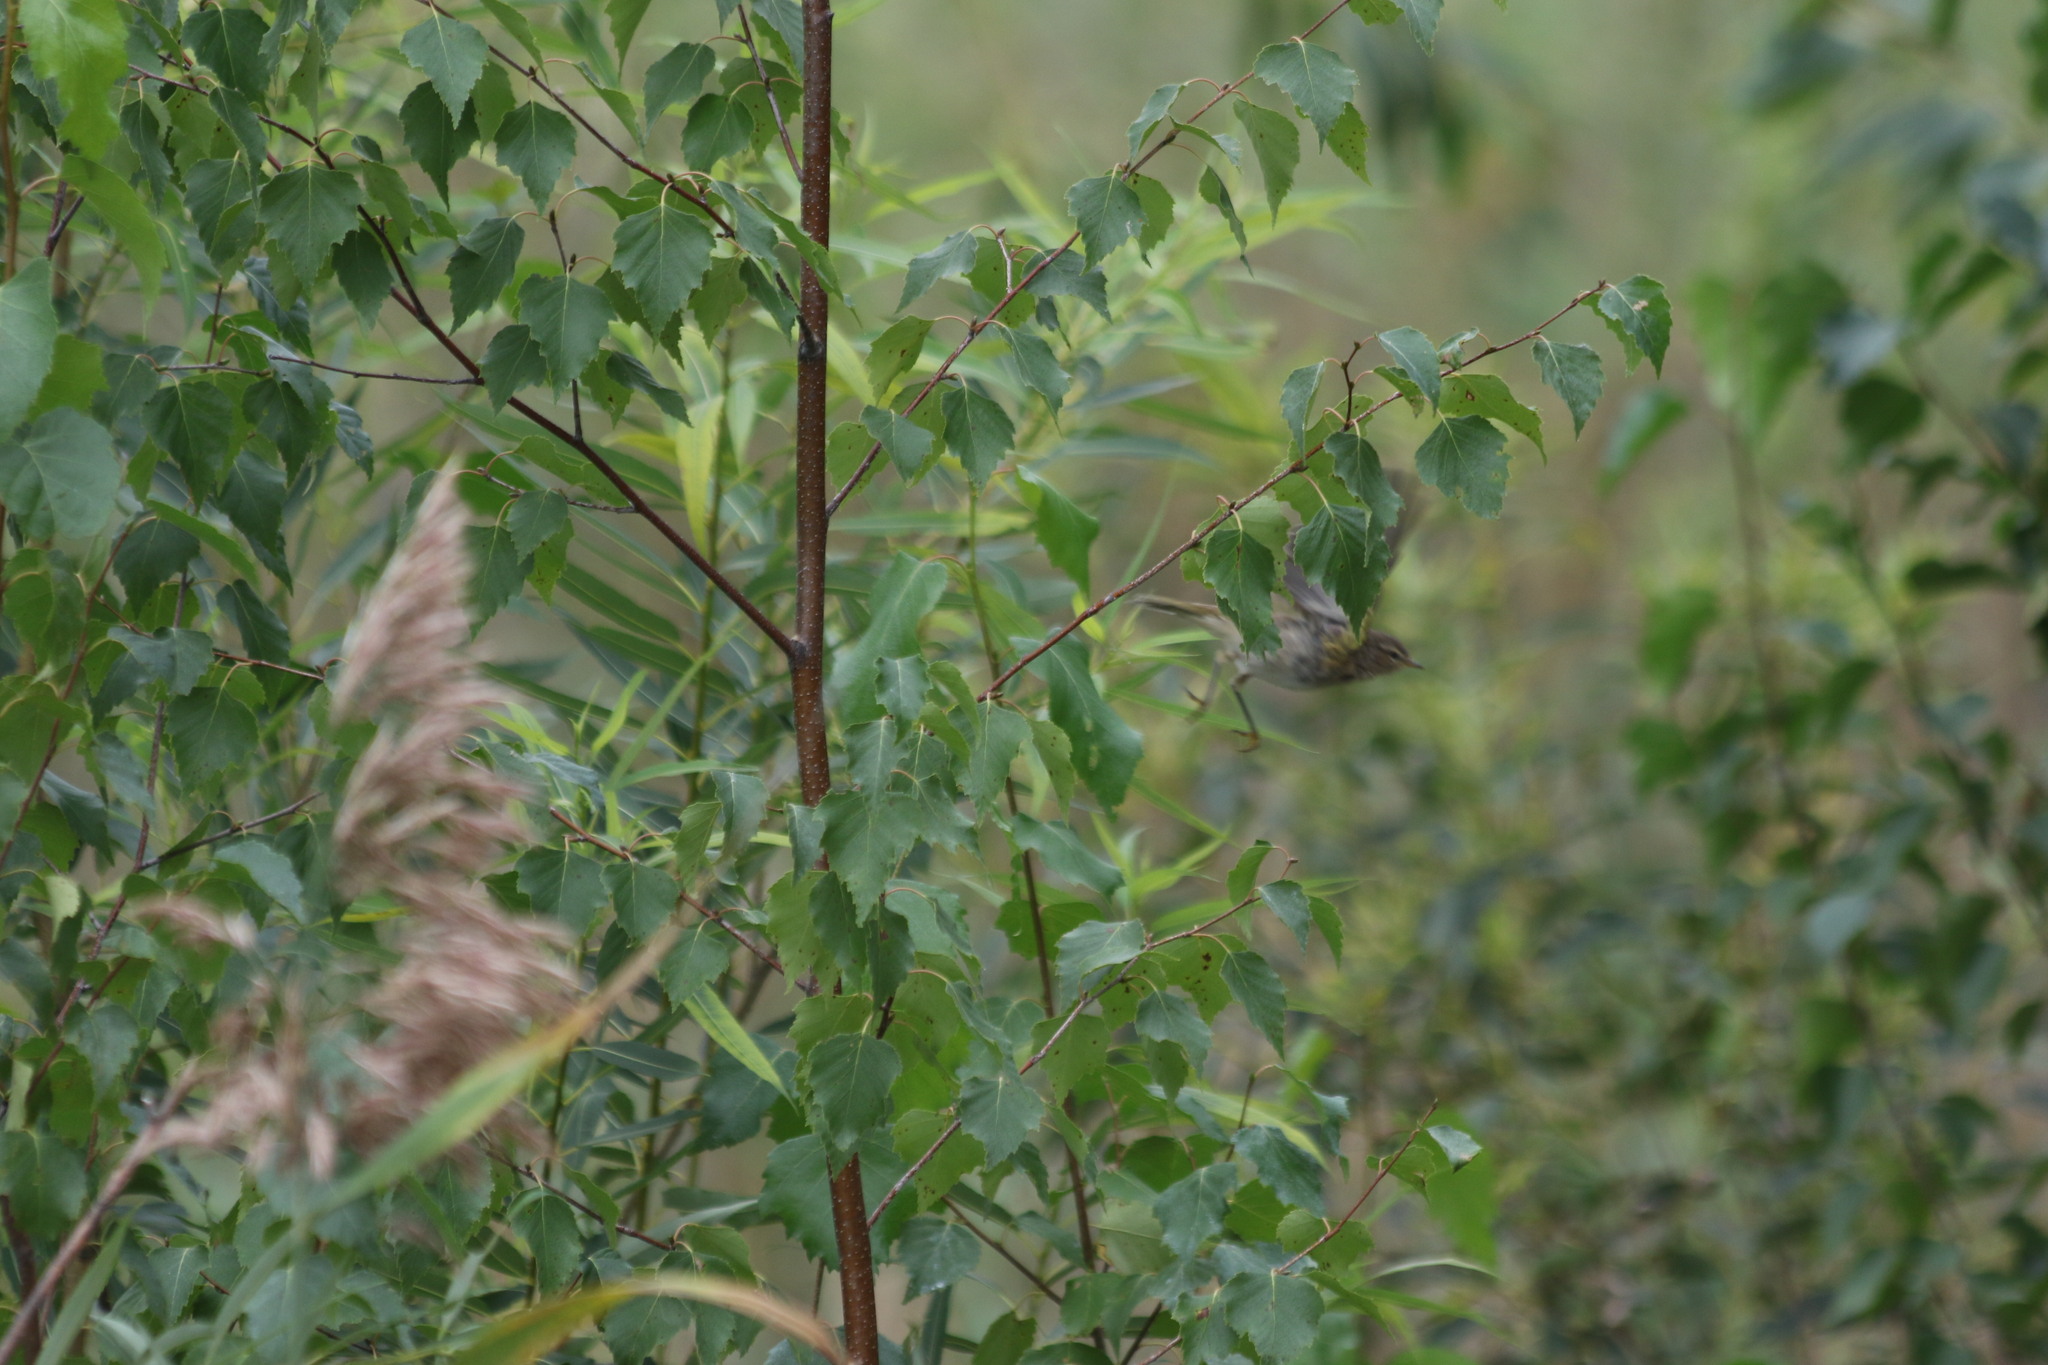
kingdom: Animalia
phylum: Chordata
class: Aves
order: Passeriformes
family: Phylloscopidae
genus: Phylloscopus
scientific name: Phylloscopus collybita
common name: Common chiffchaff
